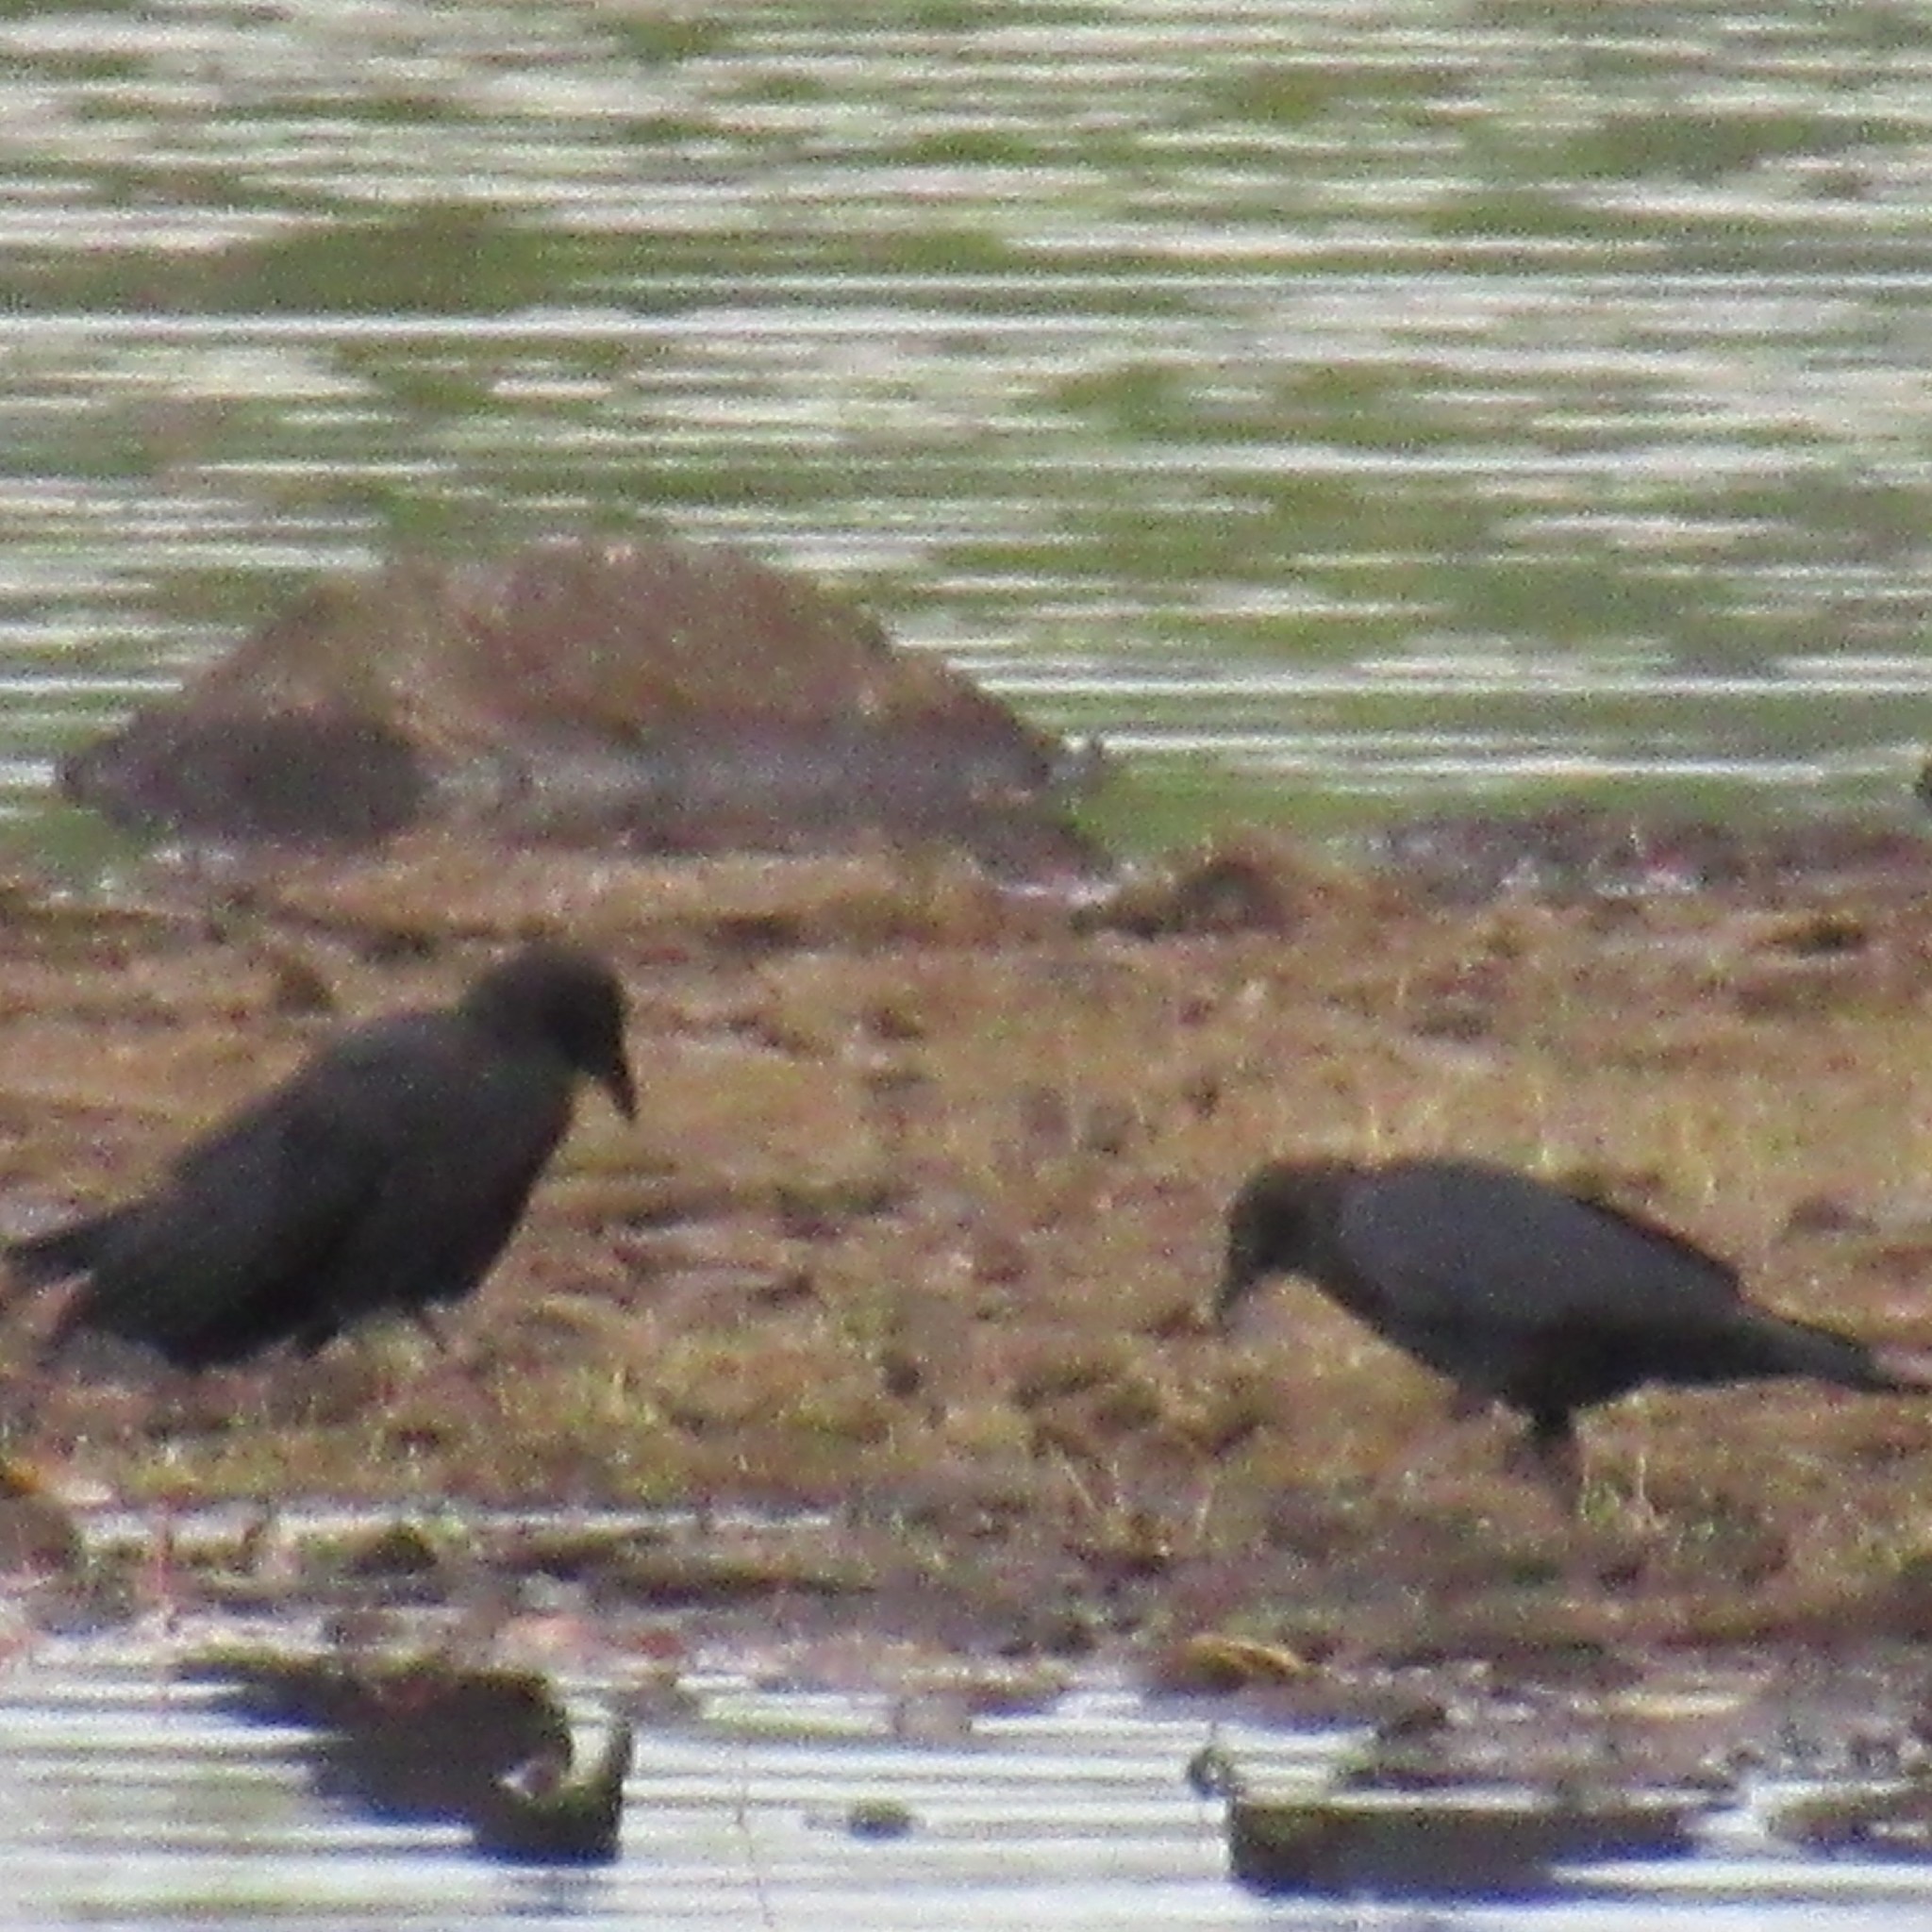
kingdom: Animalia
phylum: Chordata
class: Aves
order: Passeriformes
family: Corvidae
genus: Corvus
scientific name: Corvus brachyrhynchos
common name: American crow
